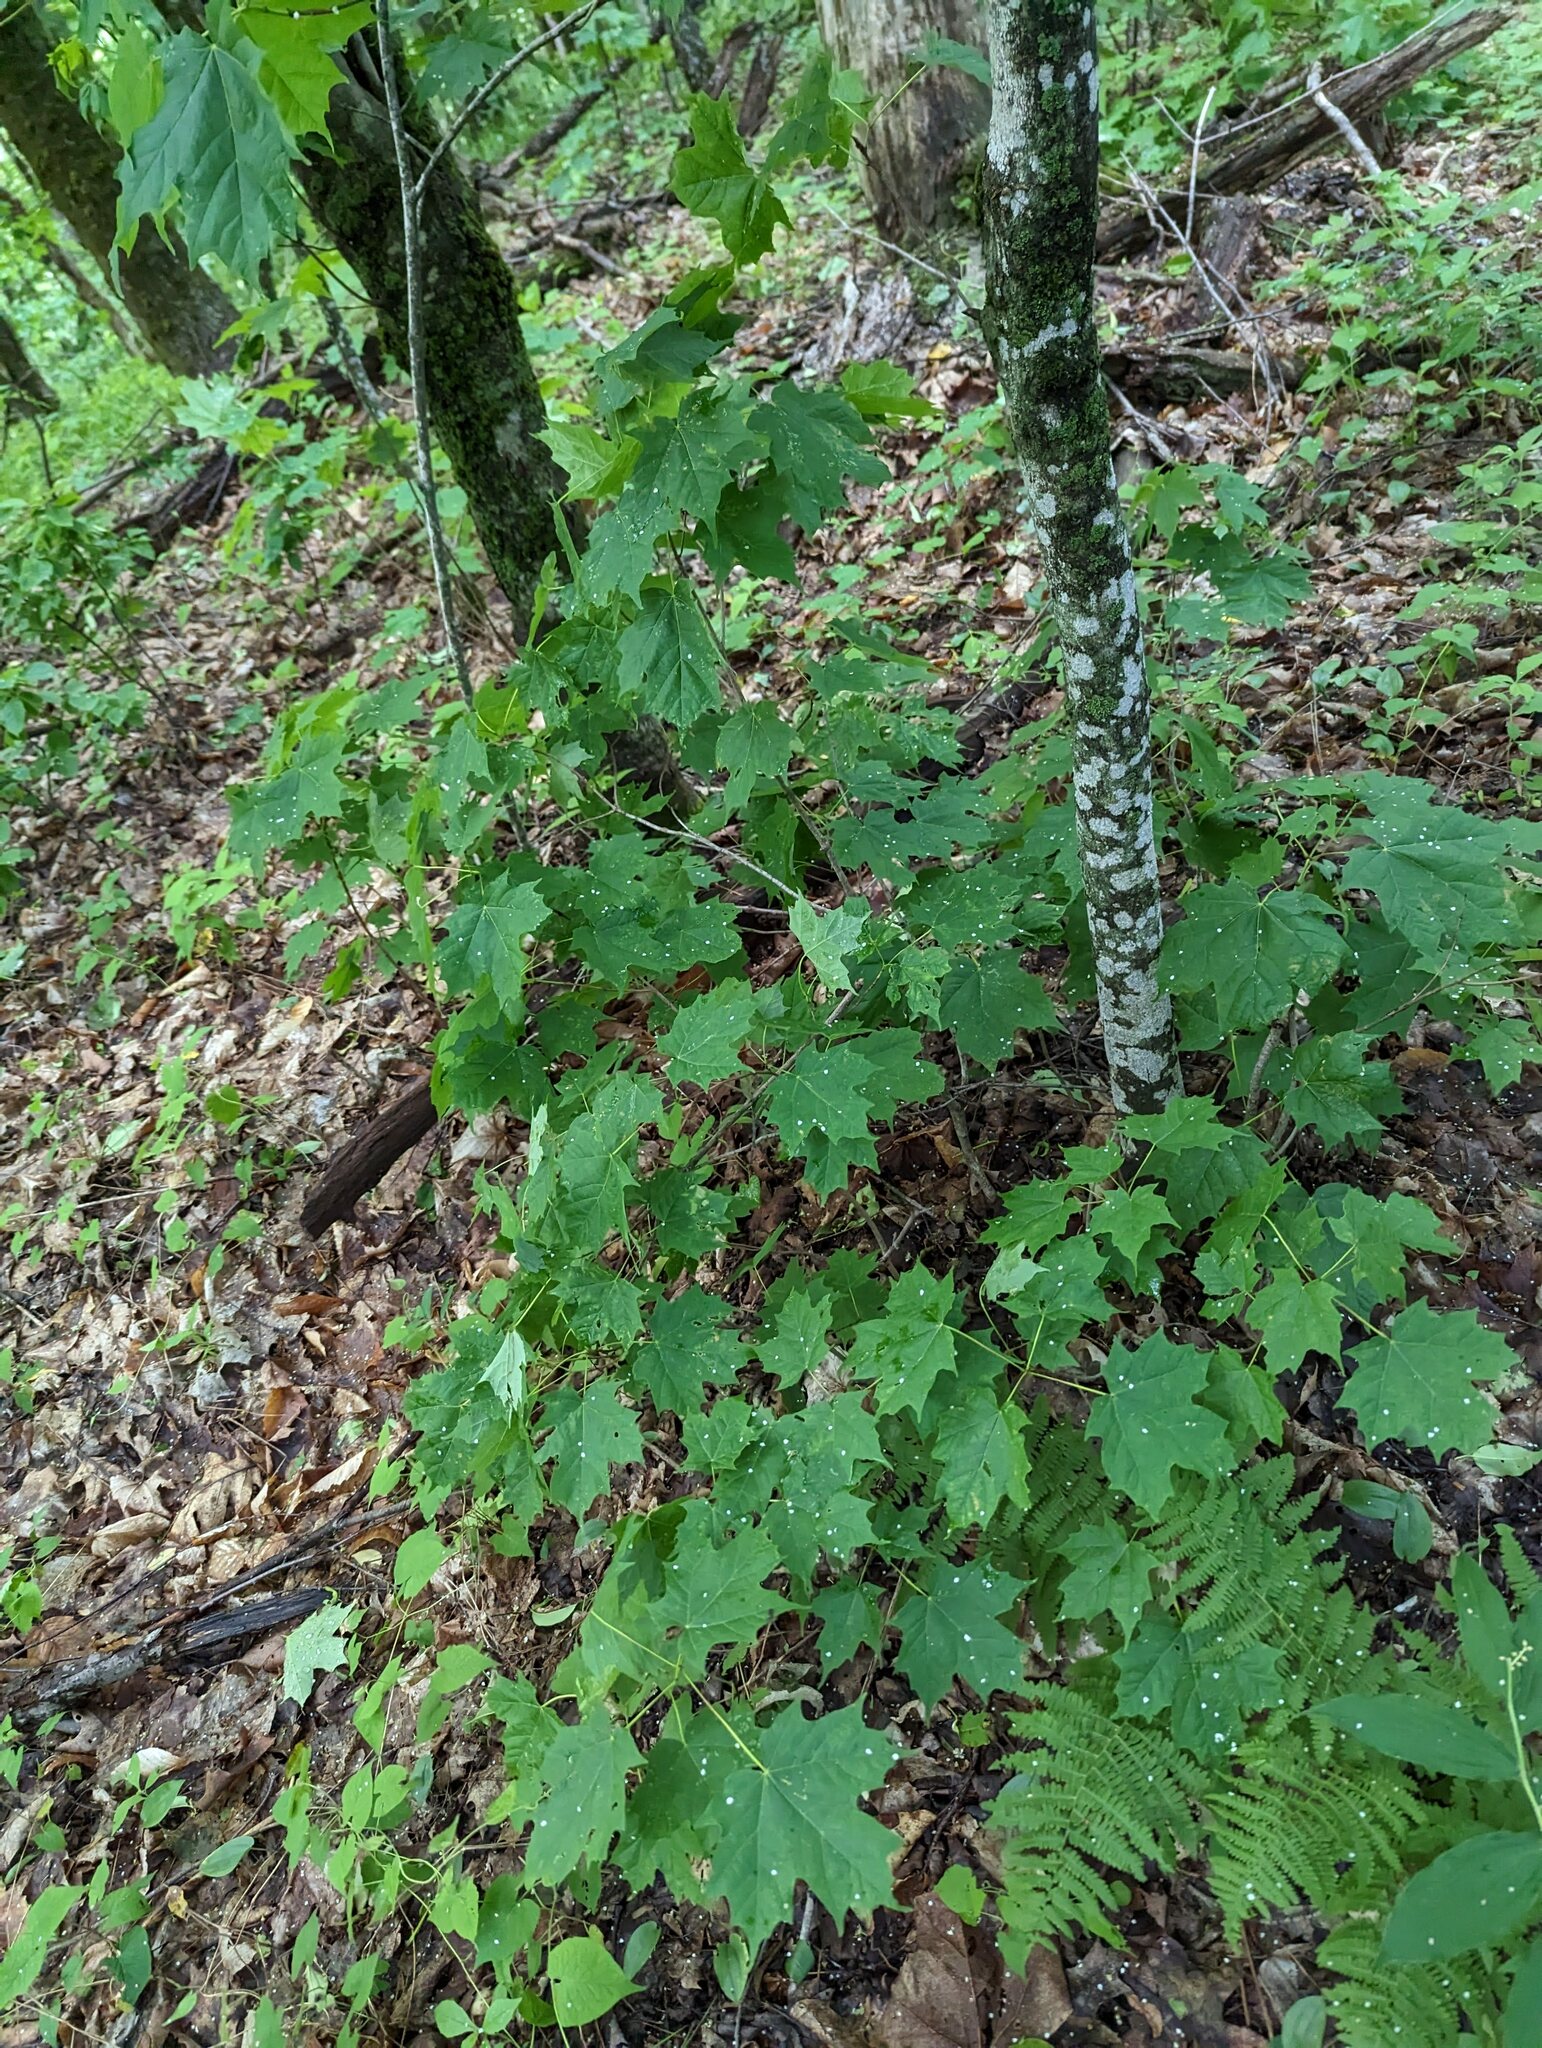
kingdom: Plantae
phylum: Tracheophyta
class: Magnoliopsida
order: Sapindales
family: Sapindaceae
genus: Acer
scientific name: Acer saccharum
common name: Sugar maple
